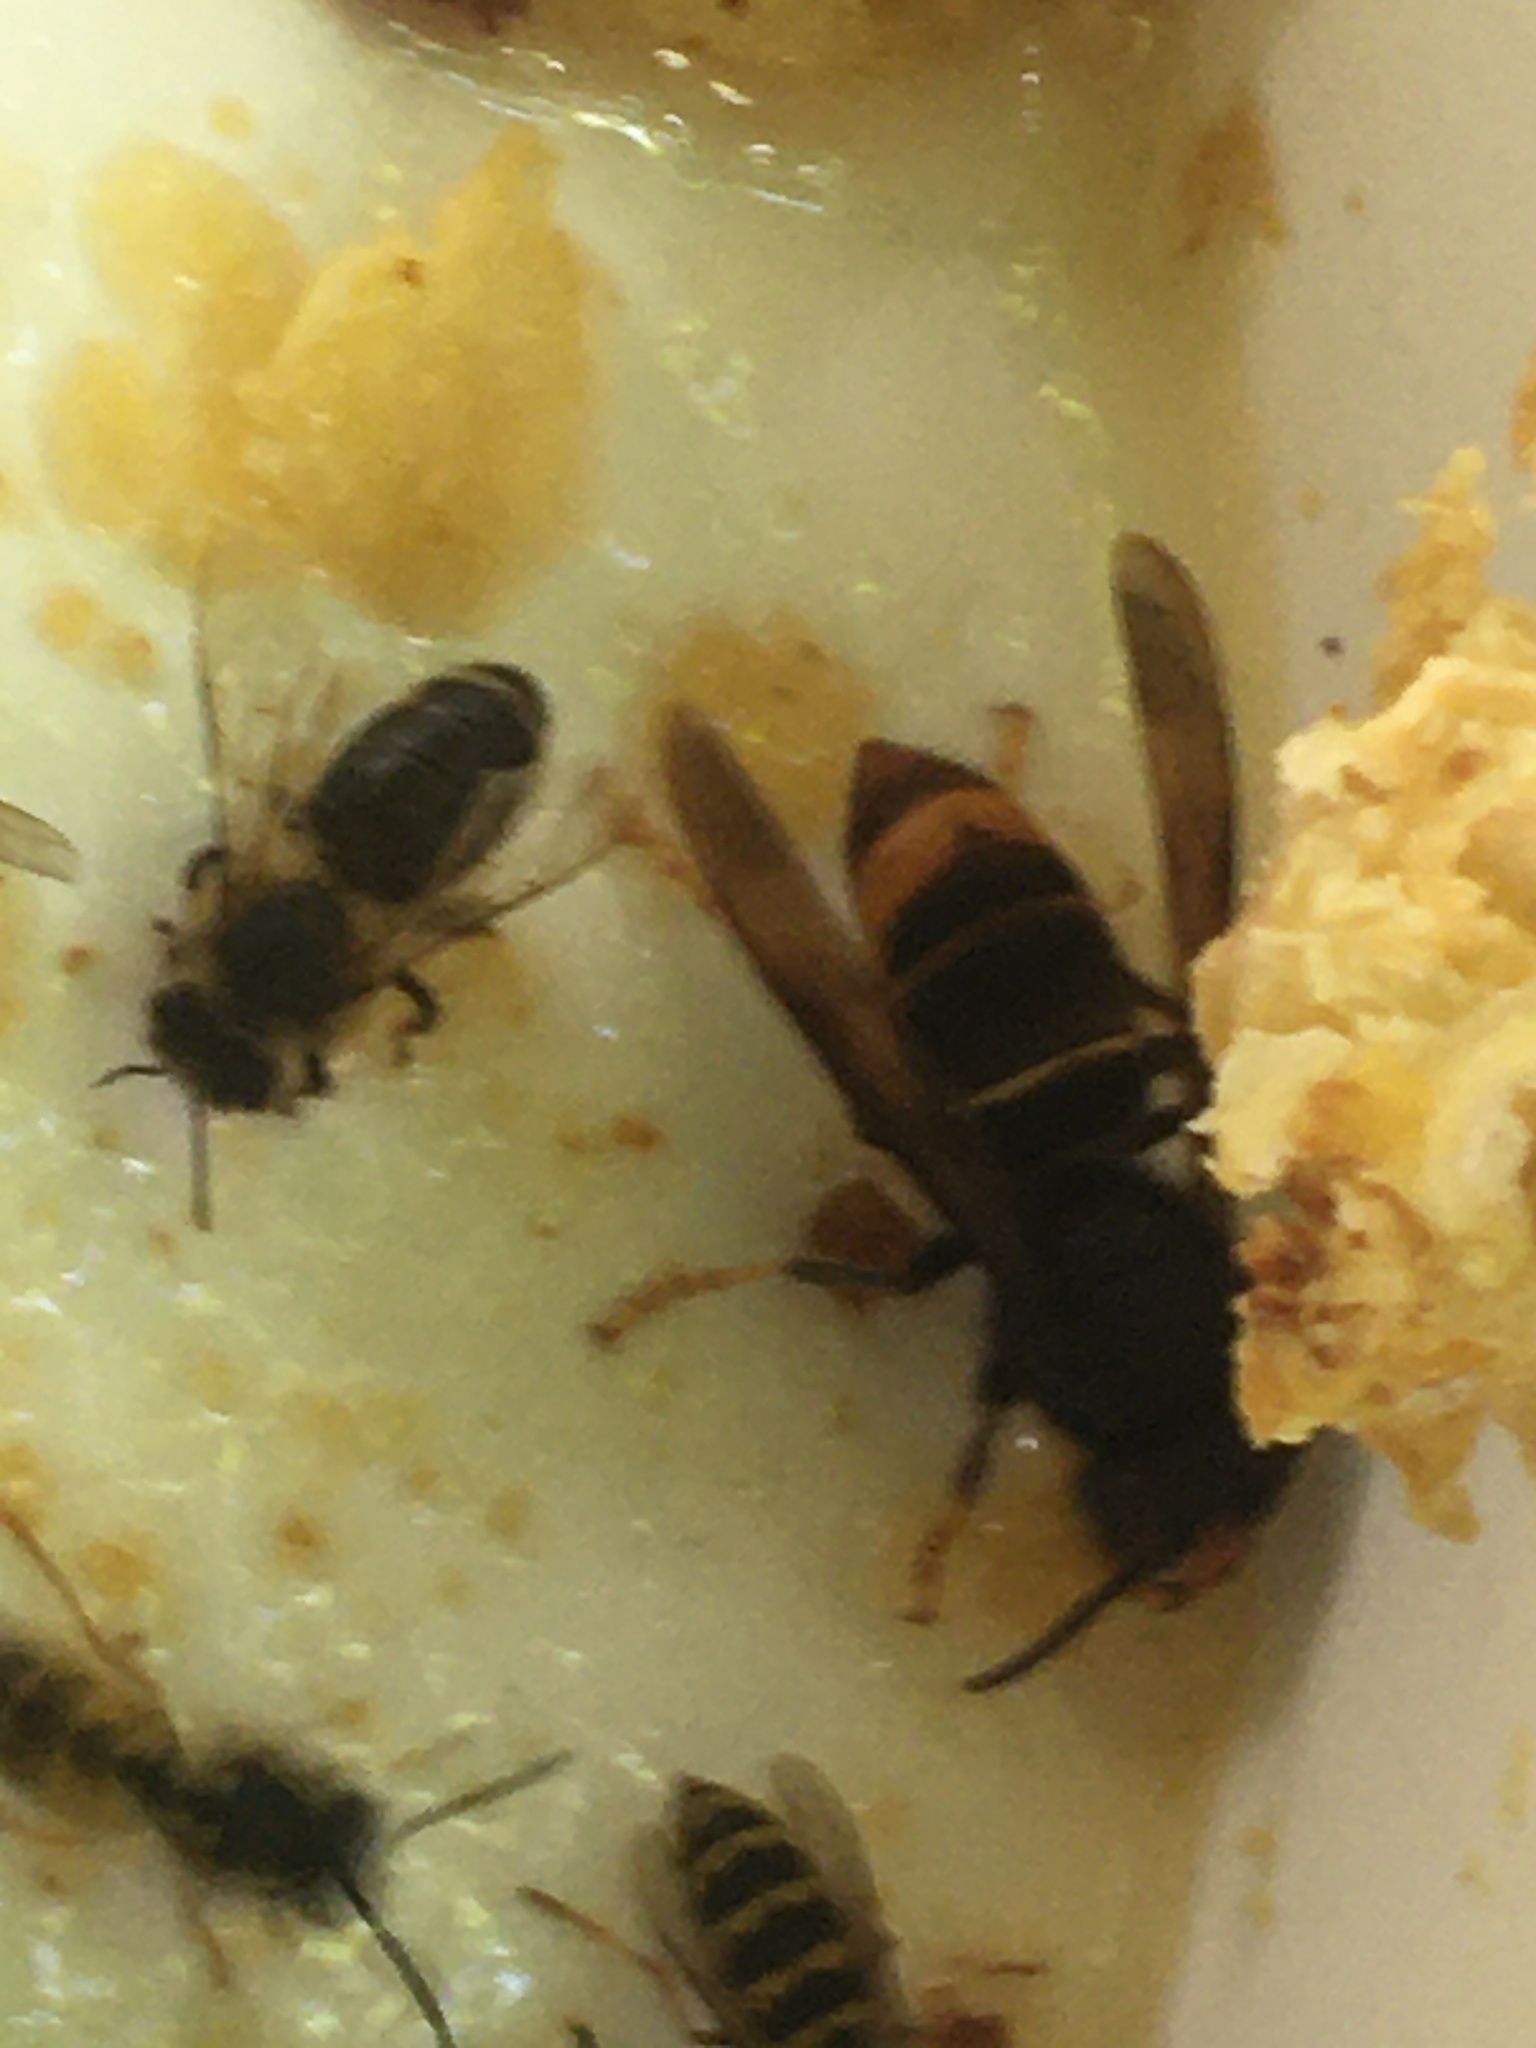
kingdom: Animalia
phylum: Arthropoda
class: Insecta
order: Hymenoptera
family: Vespidae
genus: Vespa
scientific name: Vespa velutina
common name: Asian hornet
